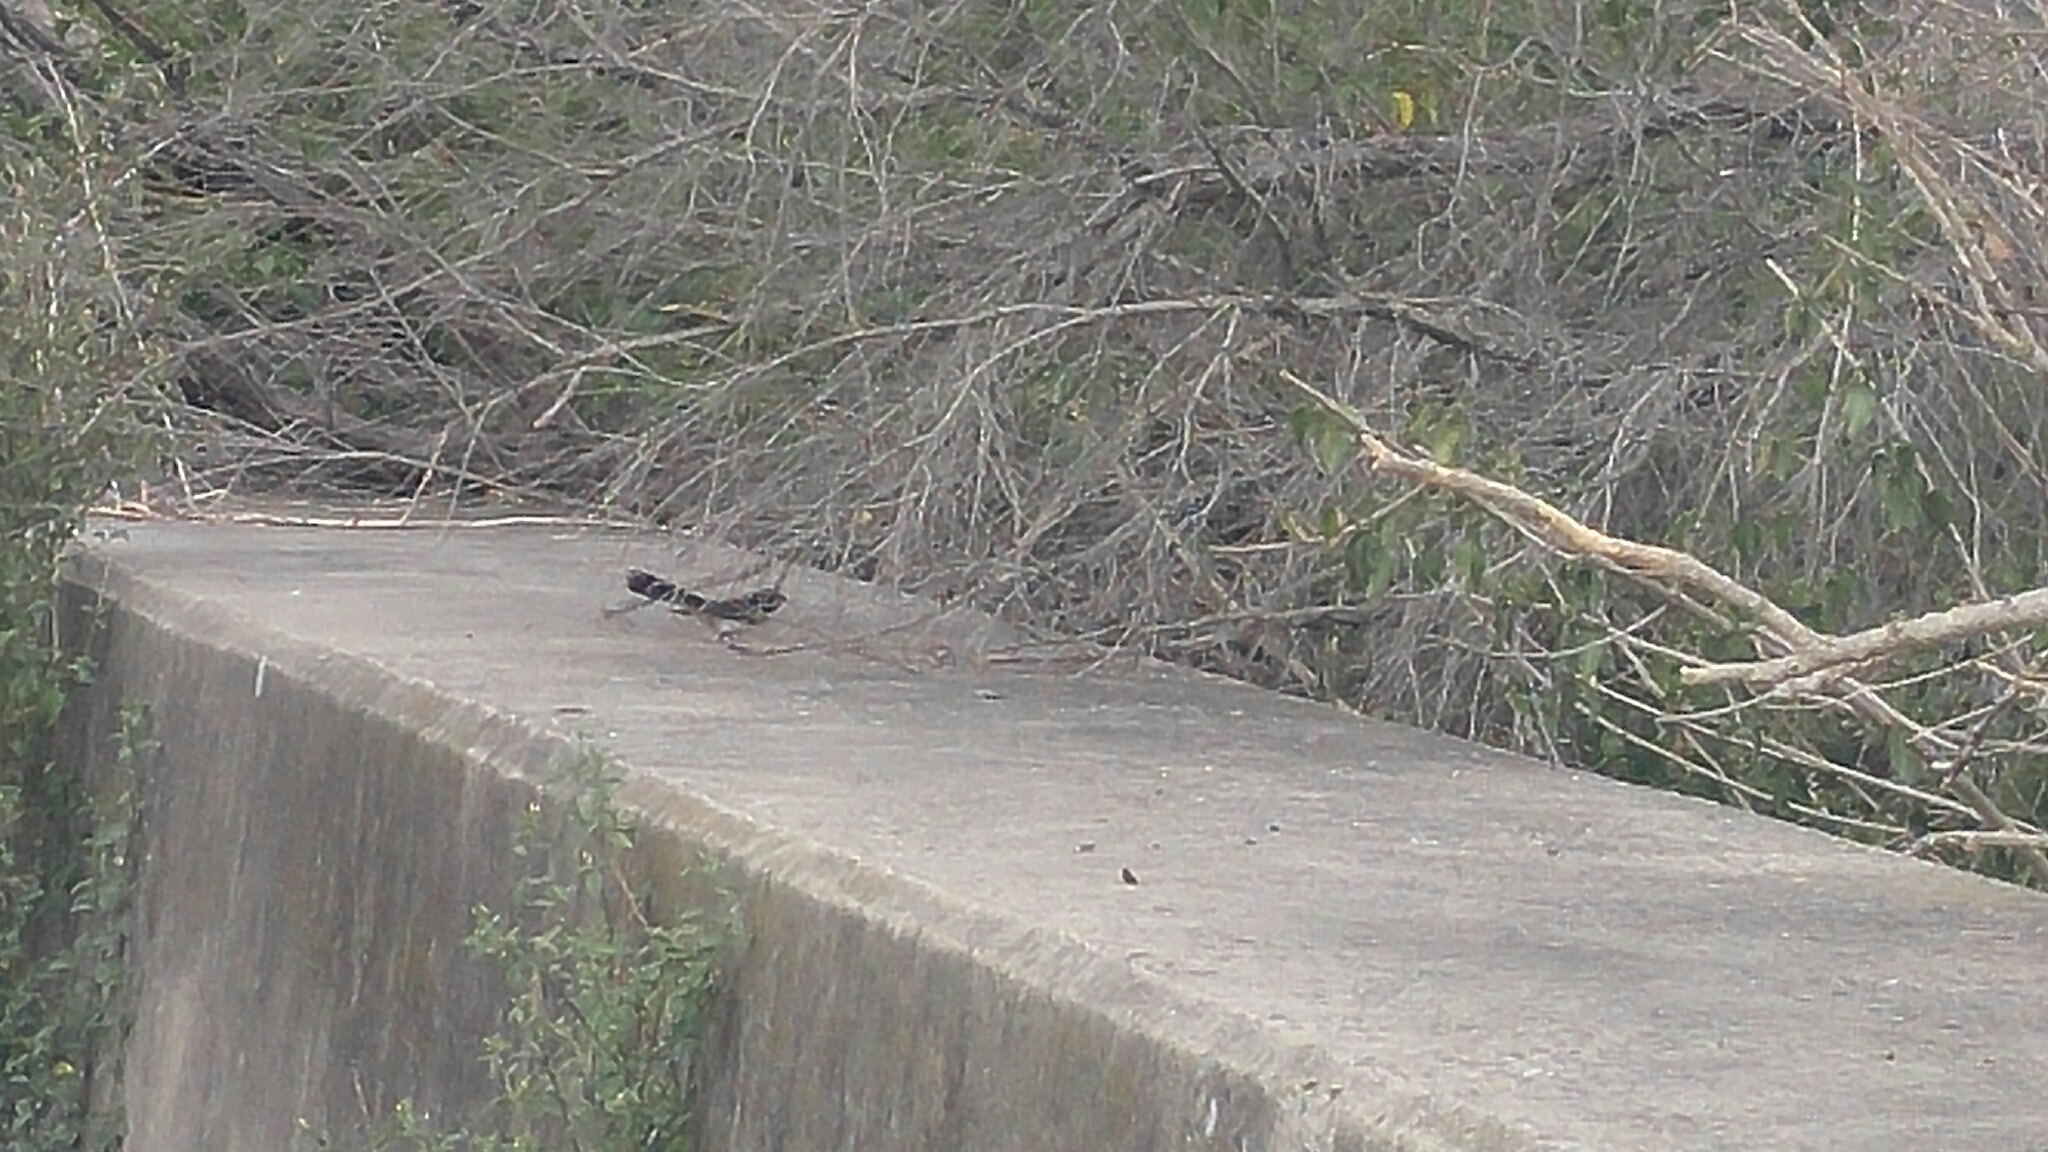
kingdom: Animalia
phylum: Chordata
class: Aves
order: Passeriformes
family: Rhipiduridae
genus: Rhipidura
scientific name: Rhipidura leucophrys
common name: Willie wagtail
